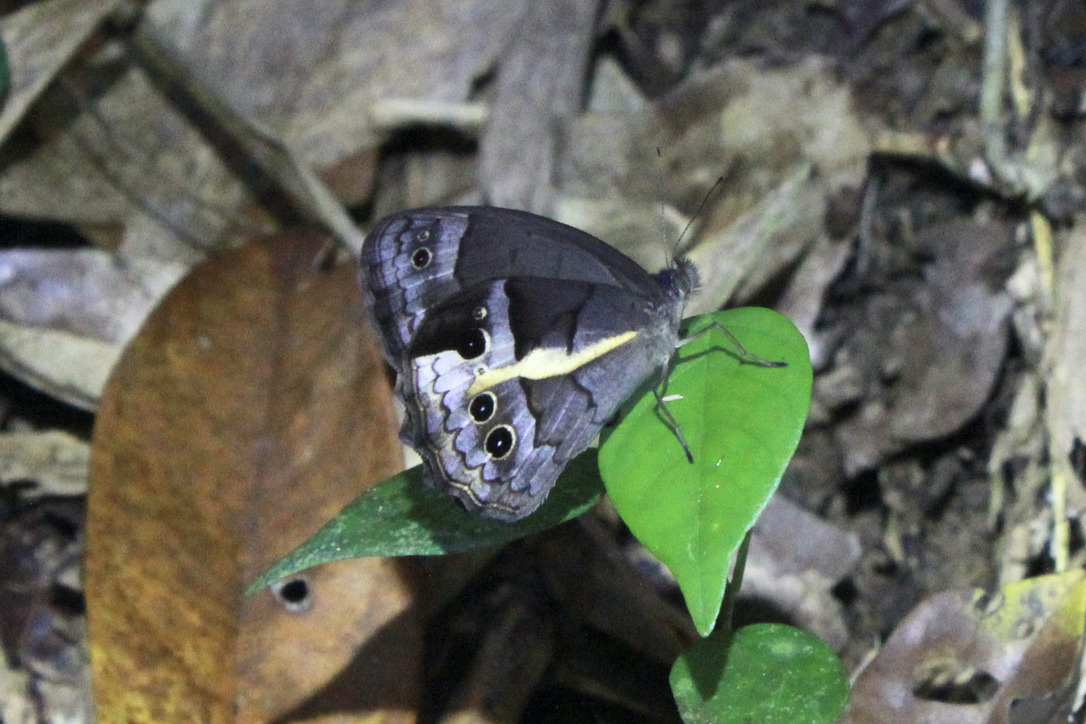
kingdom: Animalia
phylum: Arthropoda
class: Insecta
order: Lepidoptera
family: Nymphalidae
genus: Posttaygetis
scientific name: Posttaygetis penelea
